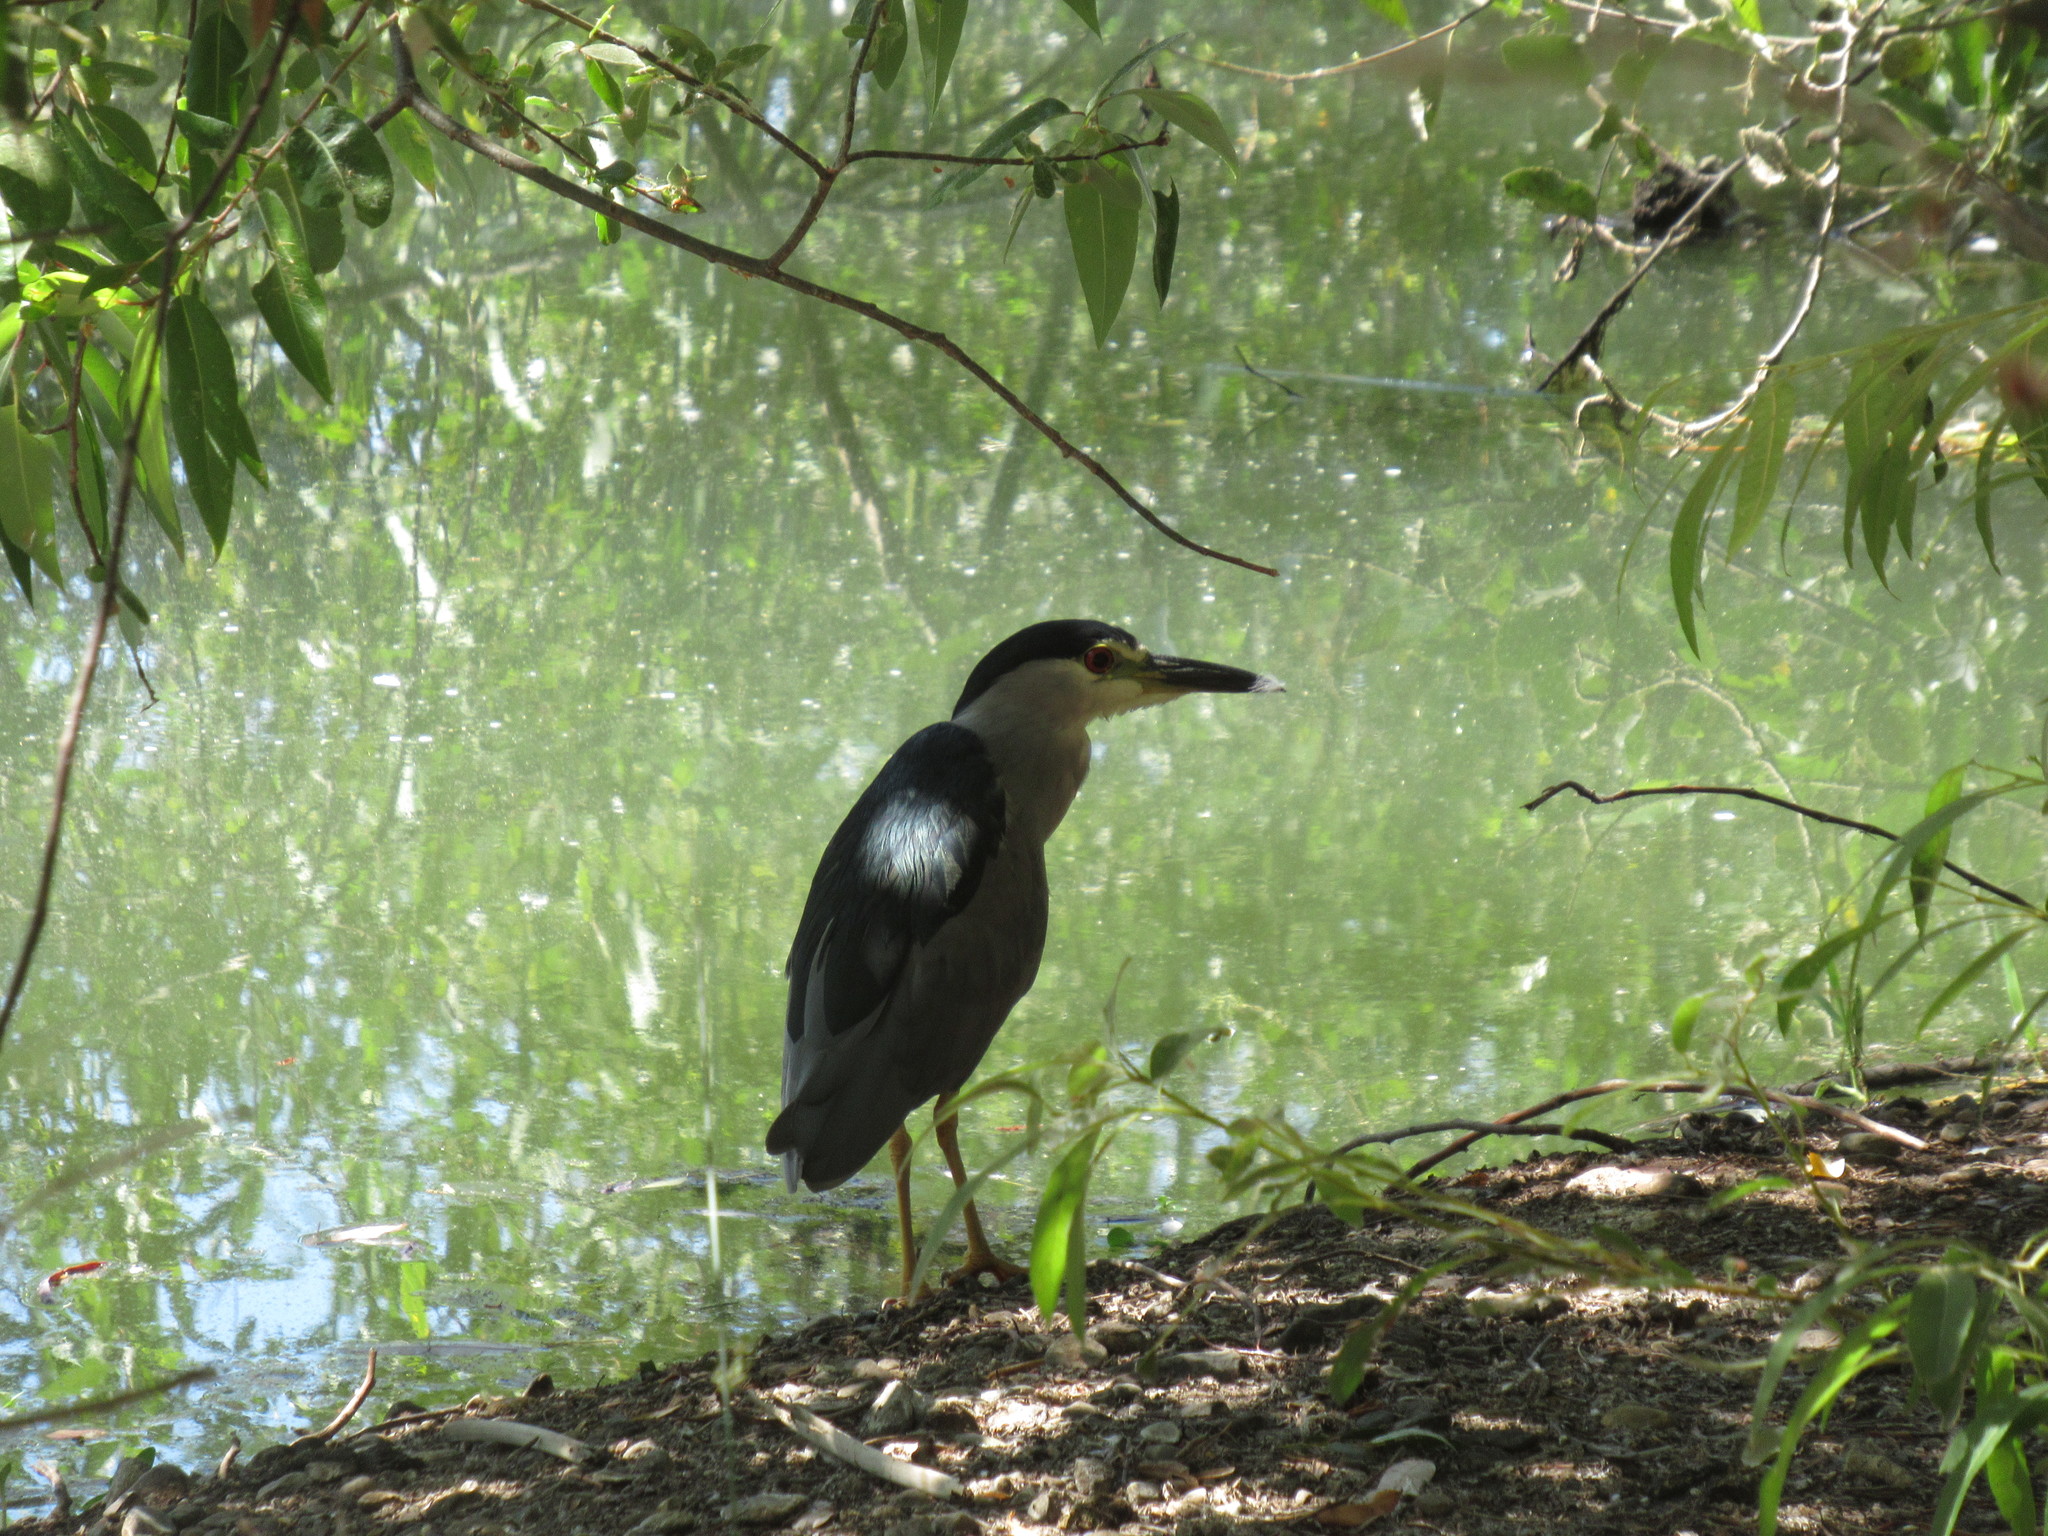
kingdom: Animalia
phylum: Chordata
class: Aves
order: Pelecaniformes
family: Ardeidae
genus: Nycticorax
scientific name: Nycticorax nycticorax
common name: Black-crowned night heron
